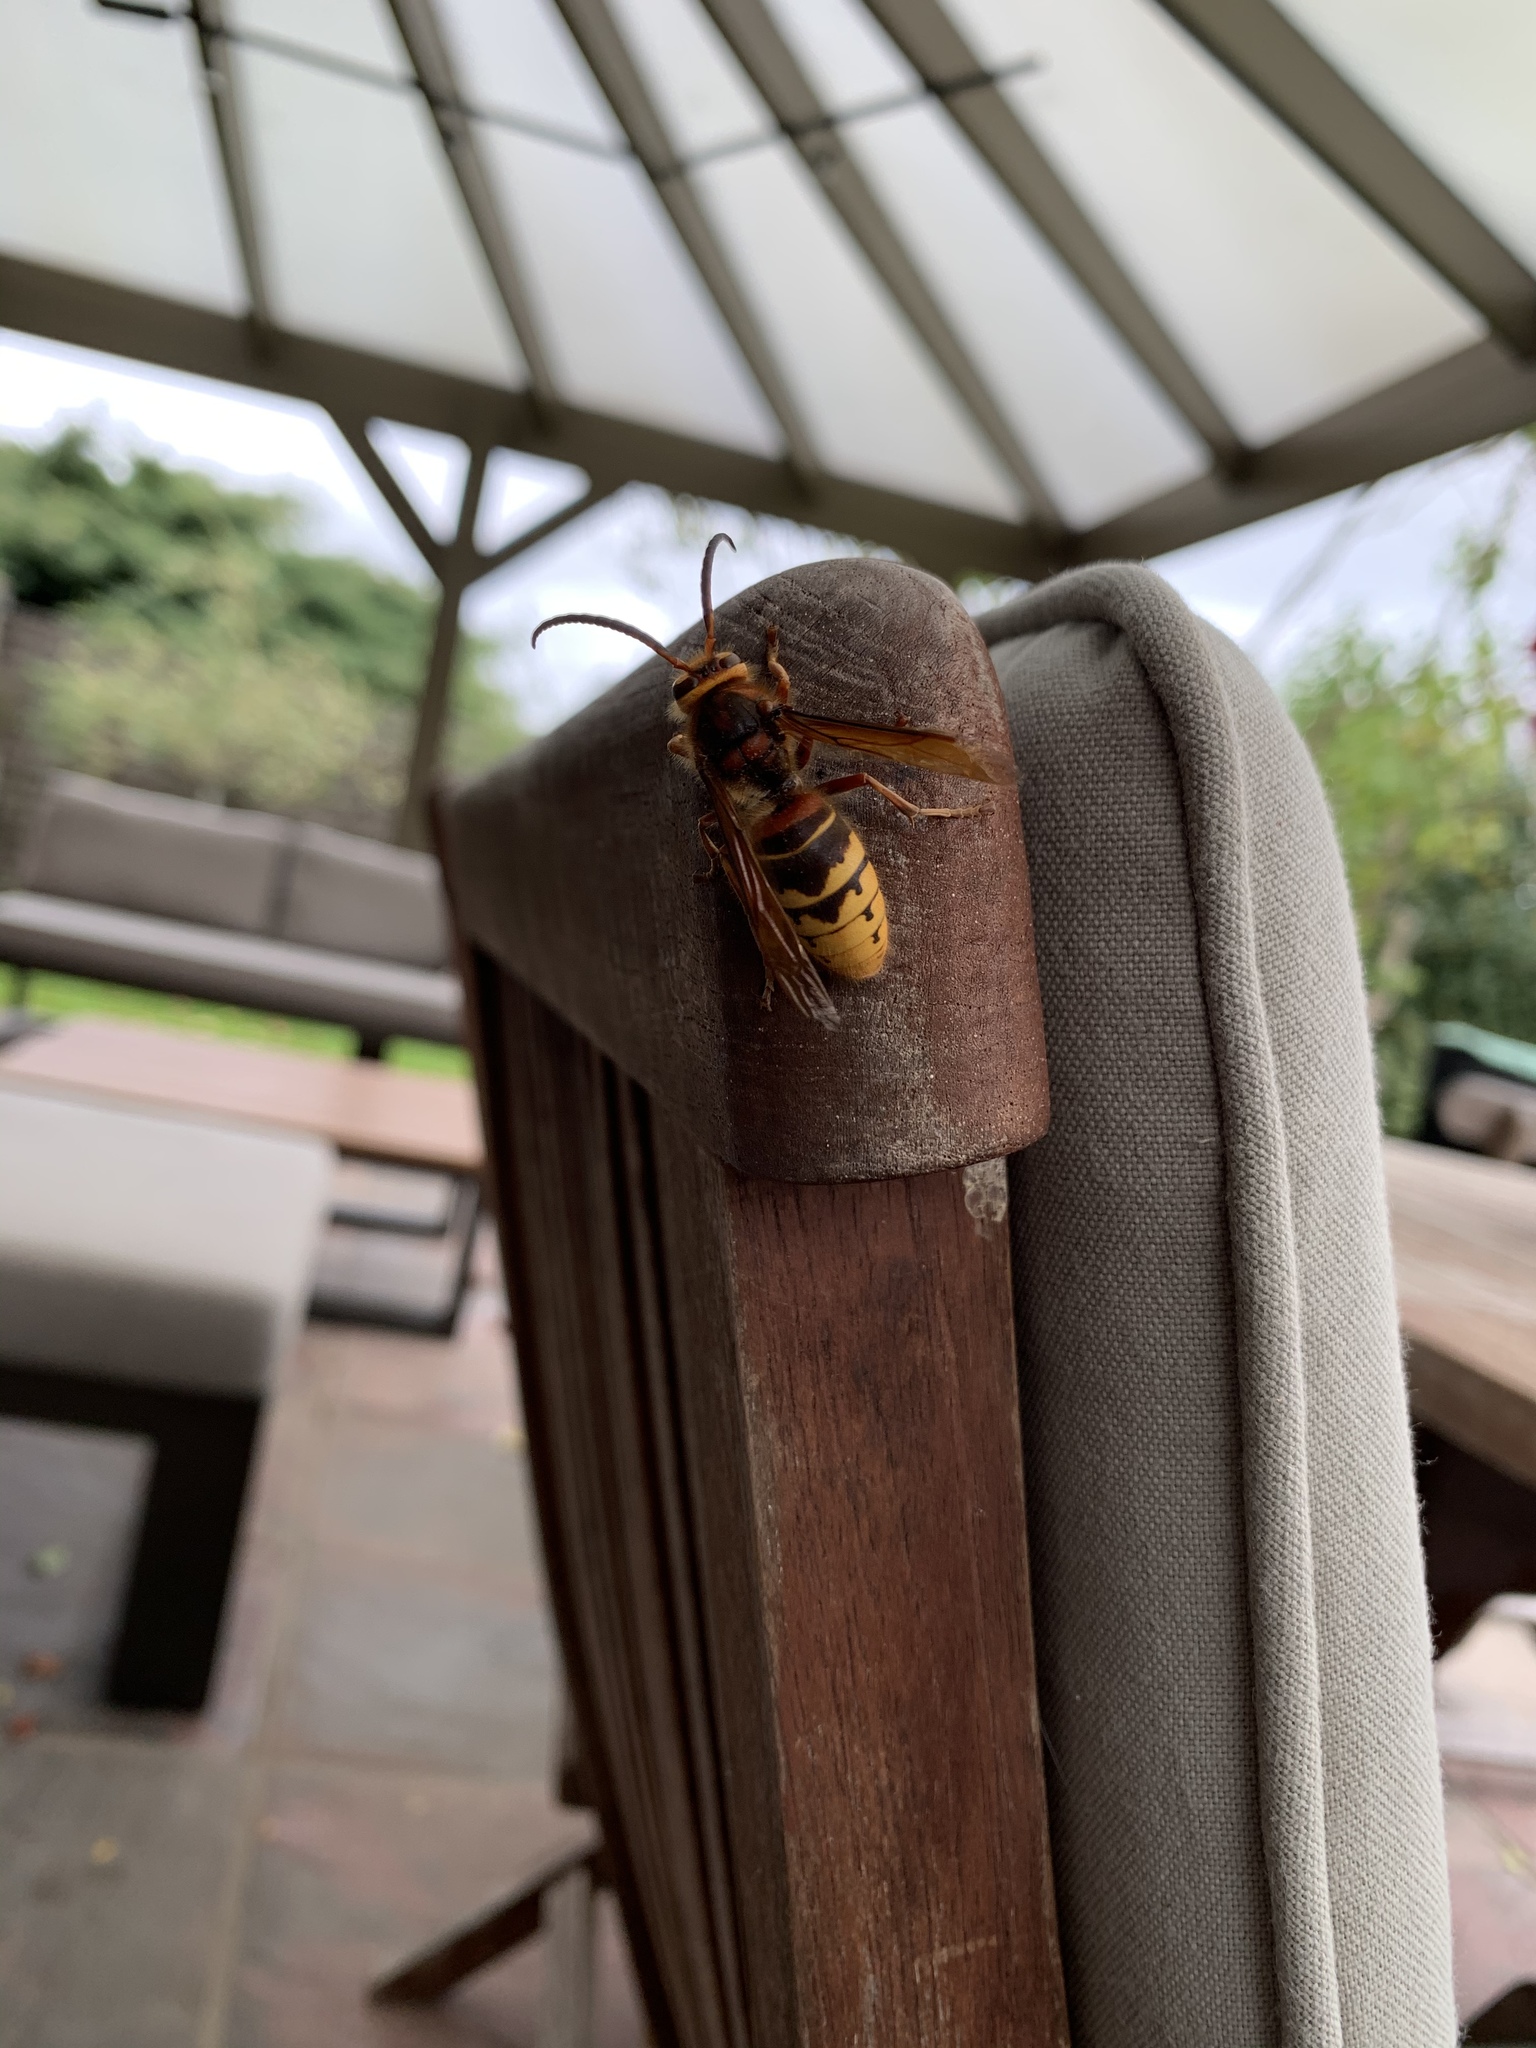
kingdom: Animalia
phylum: Arthropoda
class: Insecta
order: Hymenoptera
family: Vespidae
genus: Vespa
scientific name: Vespa crabro
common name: Hornet
